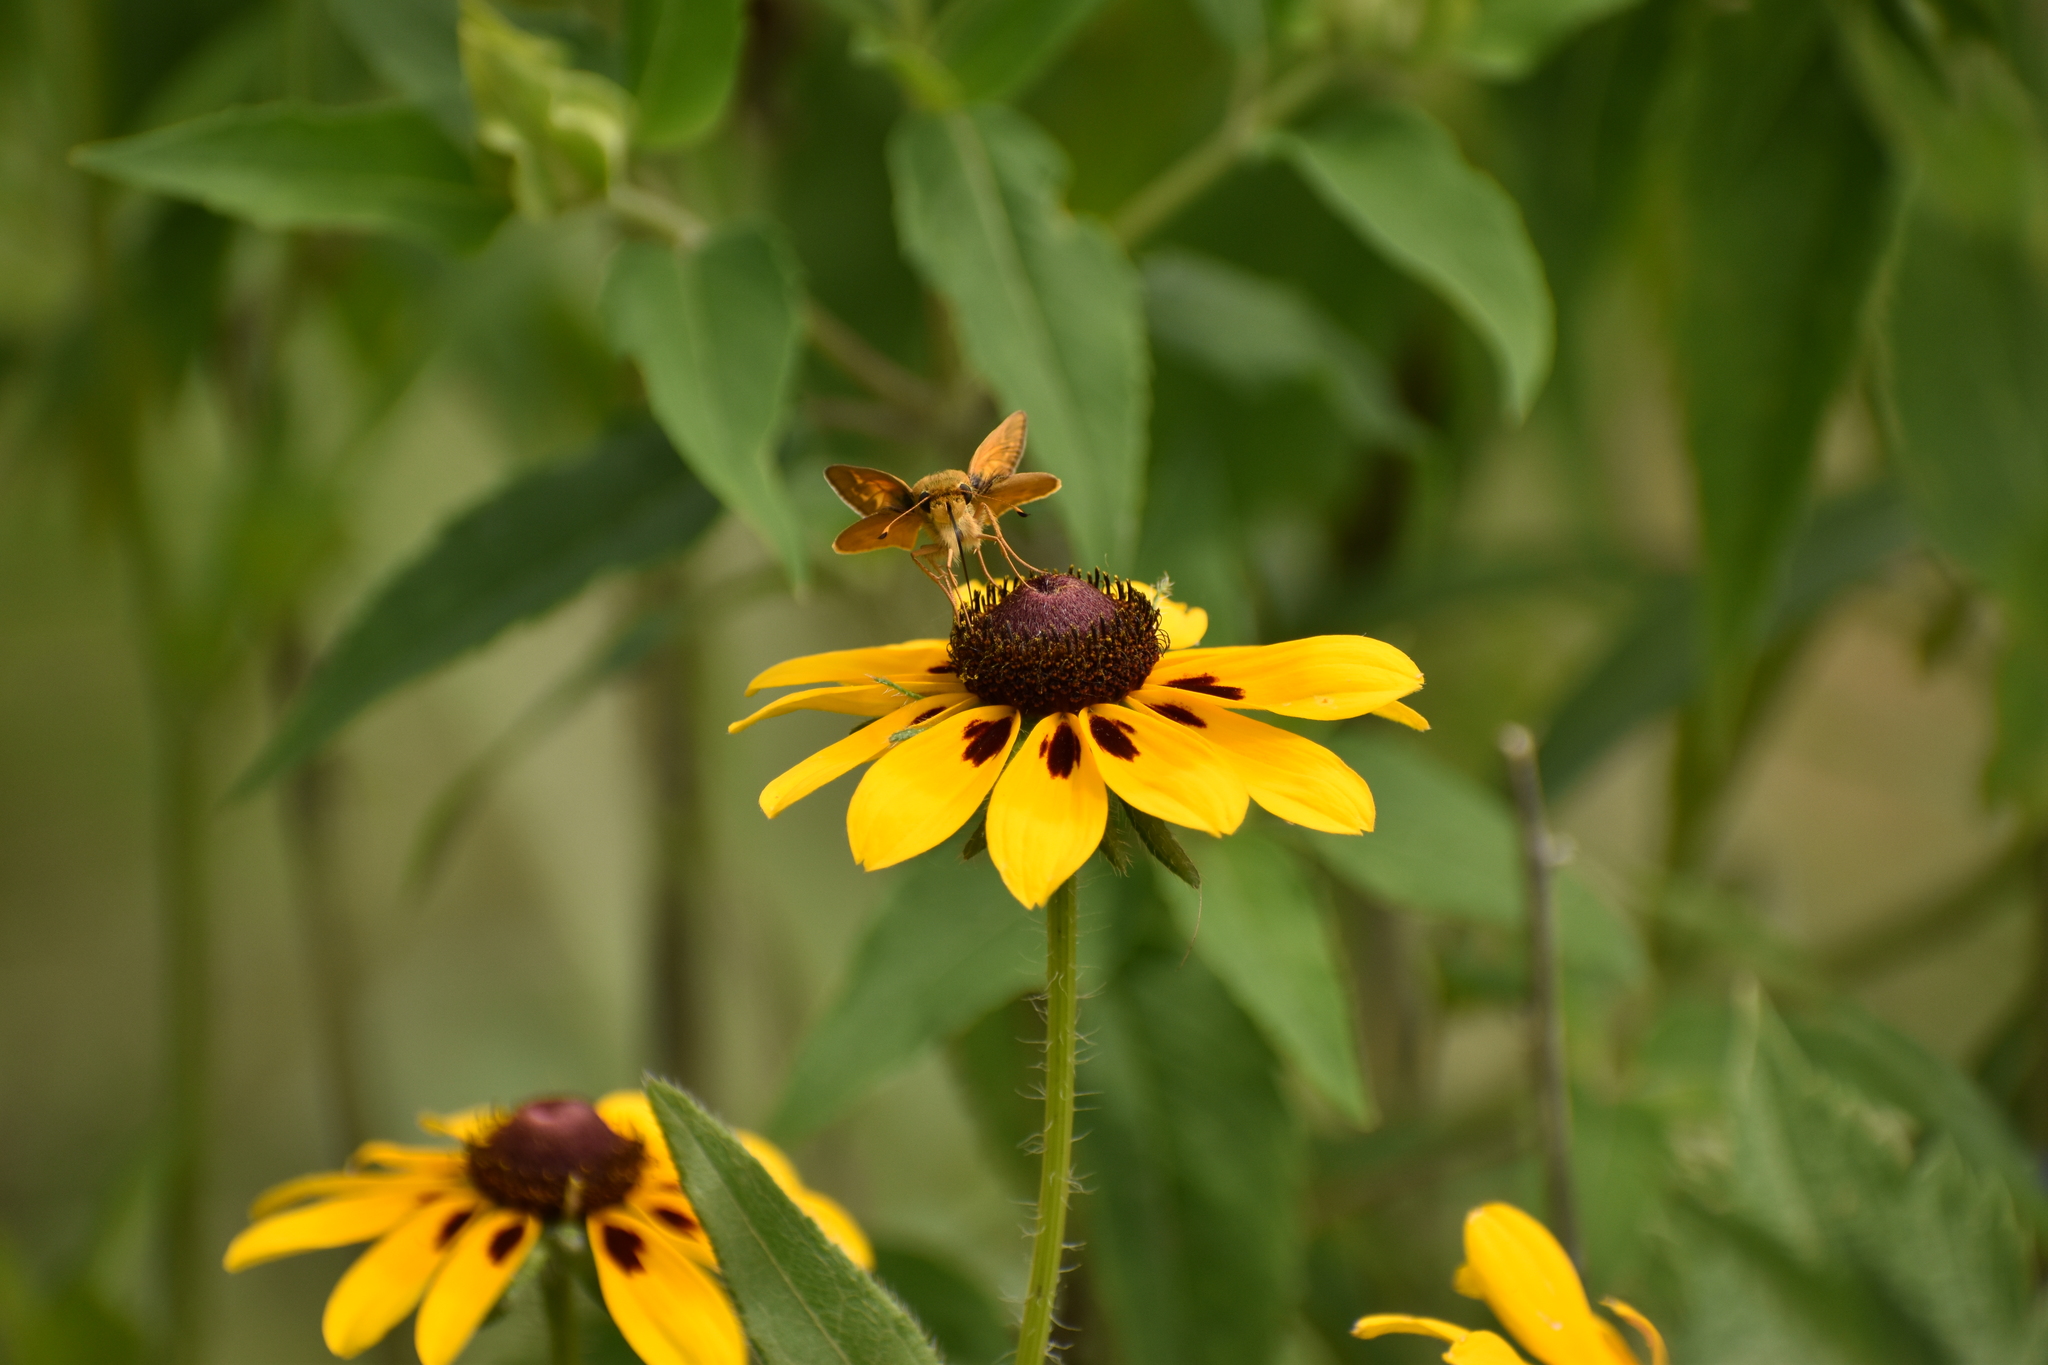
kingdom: Animalia
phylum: Arthropoda
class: Insecta
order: Lepidoptera
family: Hesperiidae
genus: Atalopedes
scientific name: Atalopedes
